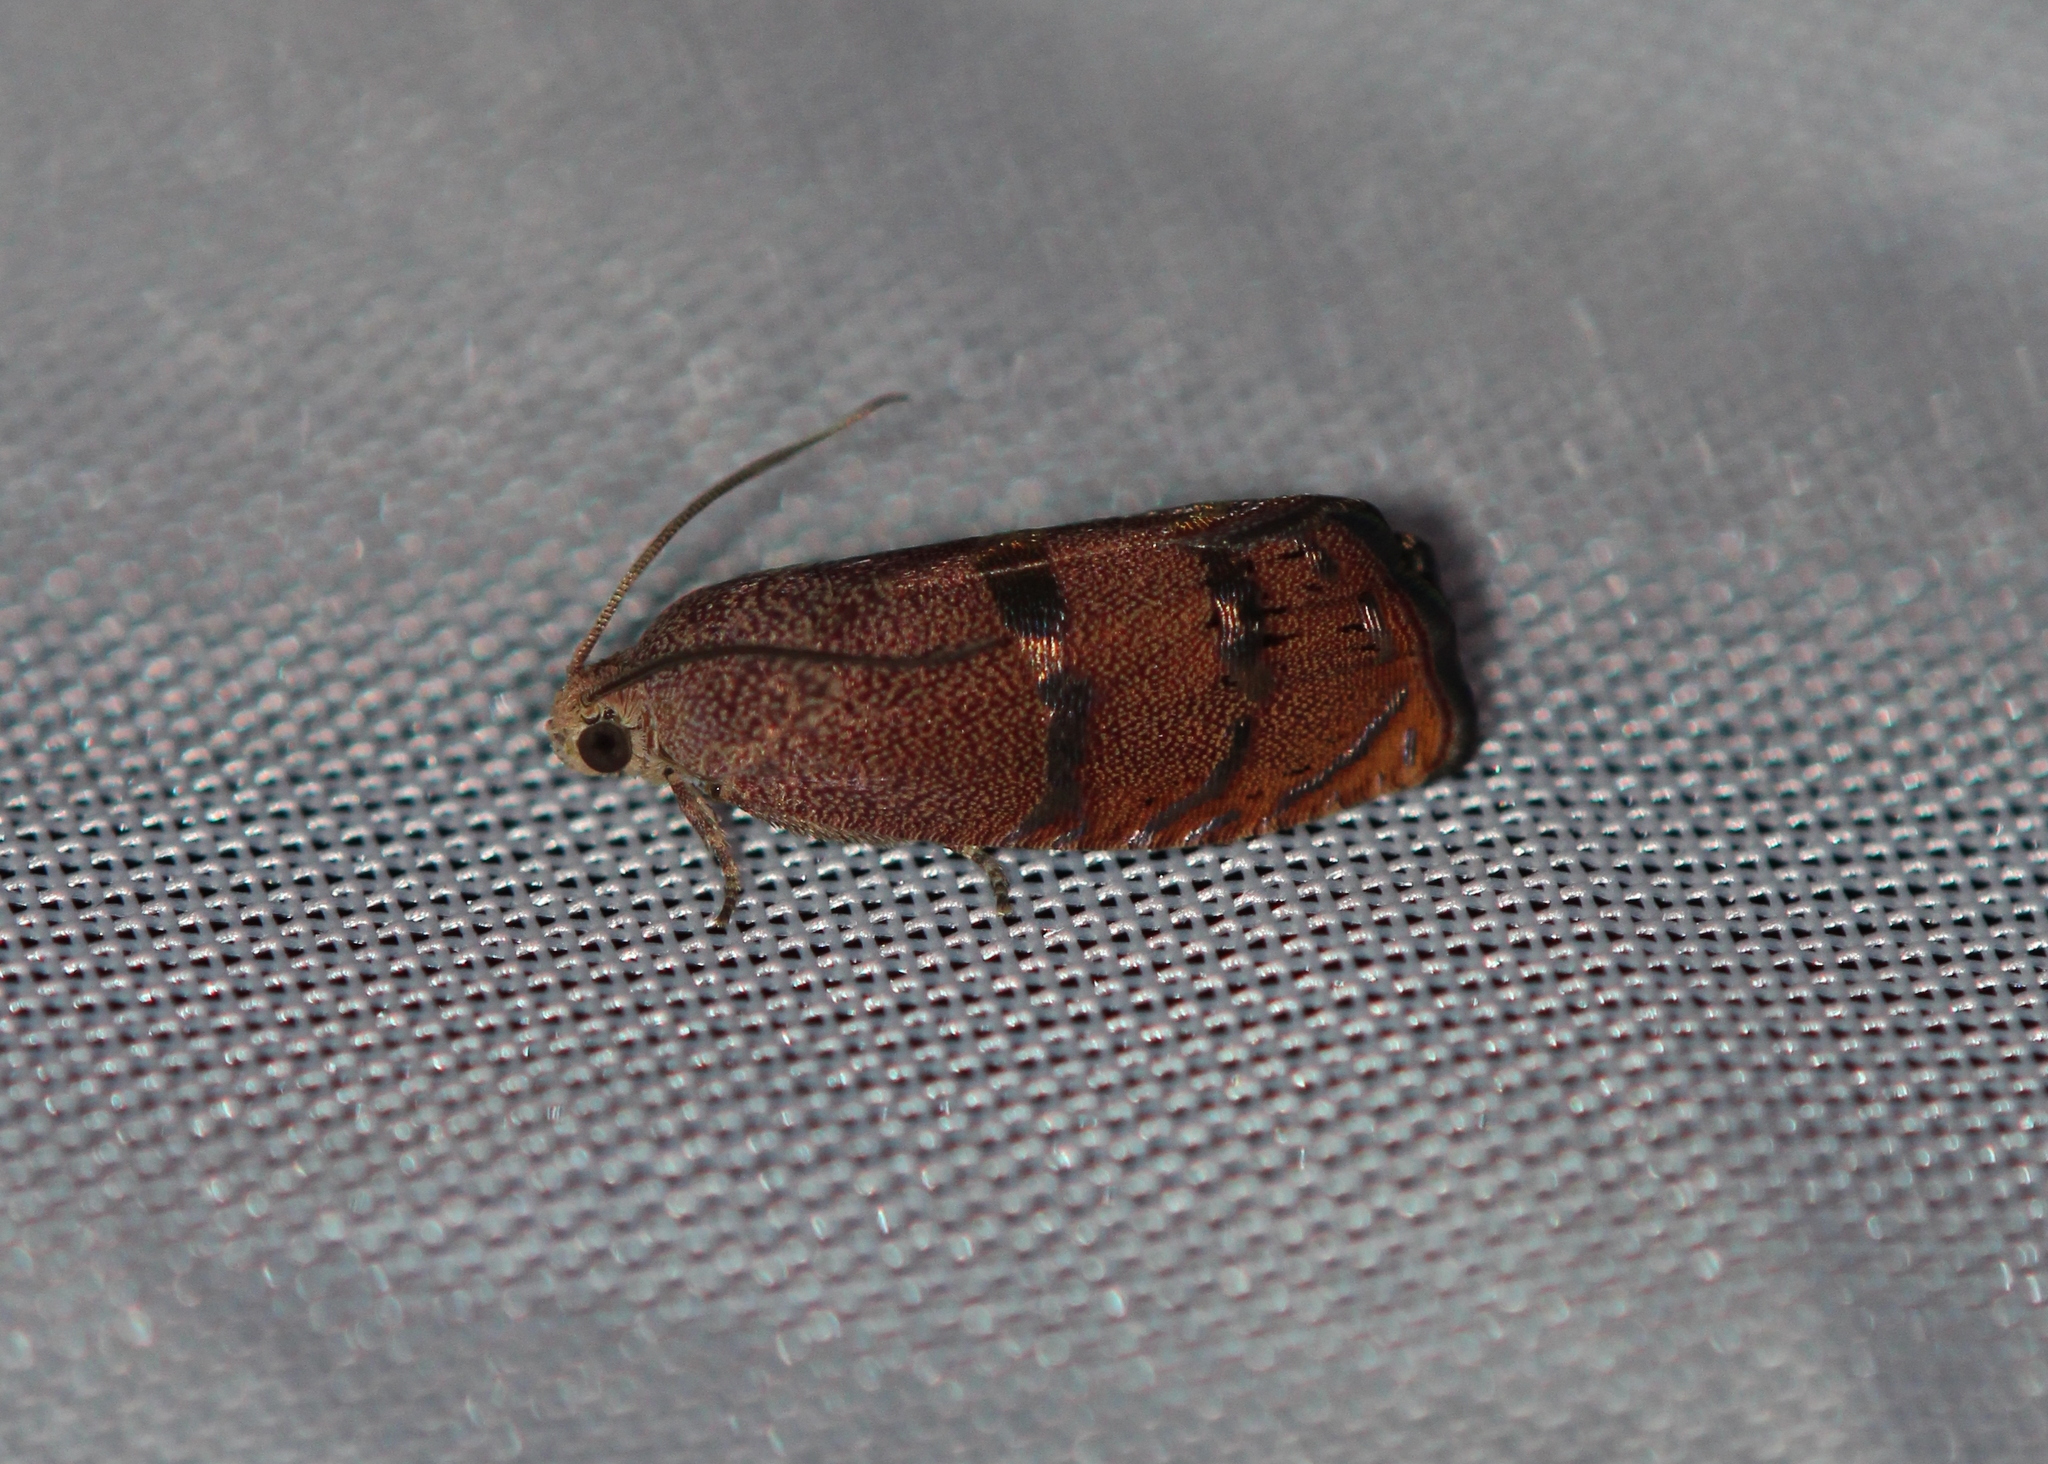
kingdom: Animalia
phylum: Arthropoda
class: Insecta
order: Lepidoptera
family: Tortricidae
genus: Cydia
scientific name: Cydia latiferreana
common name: Filbertworm moth
